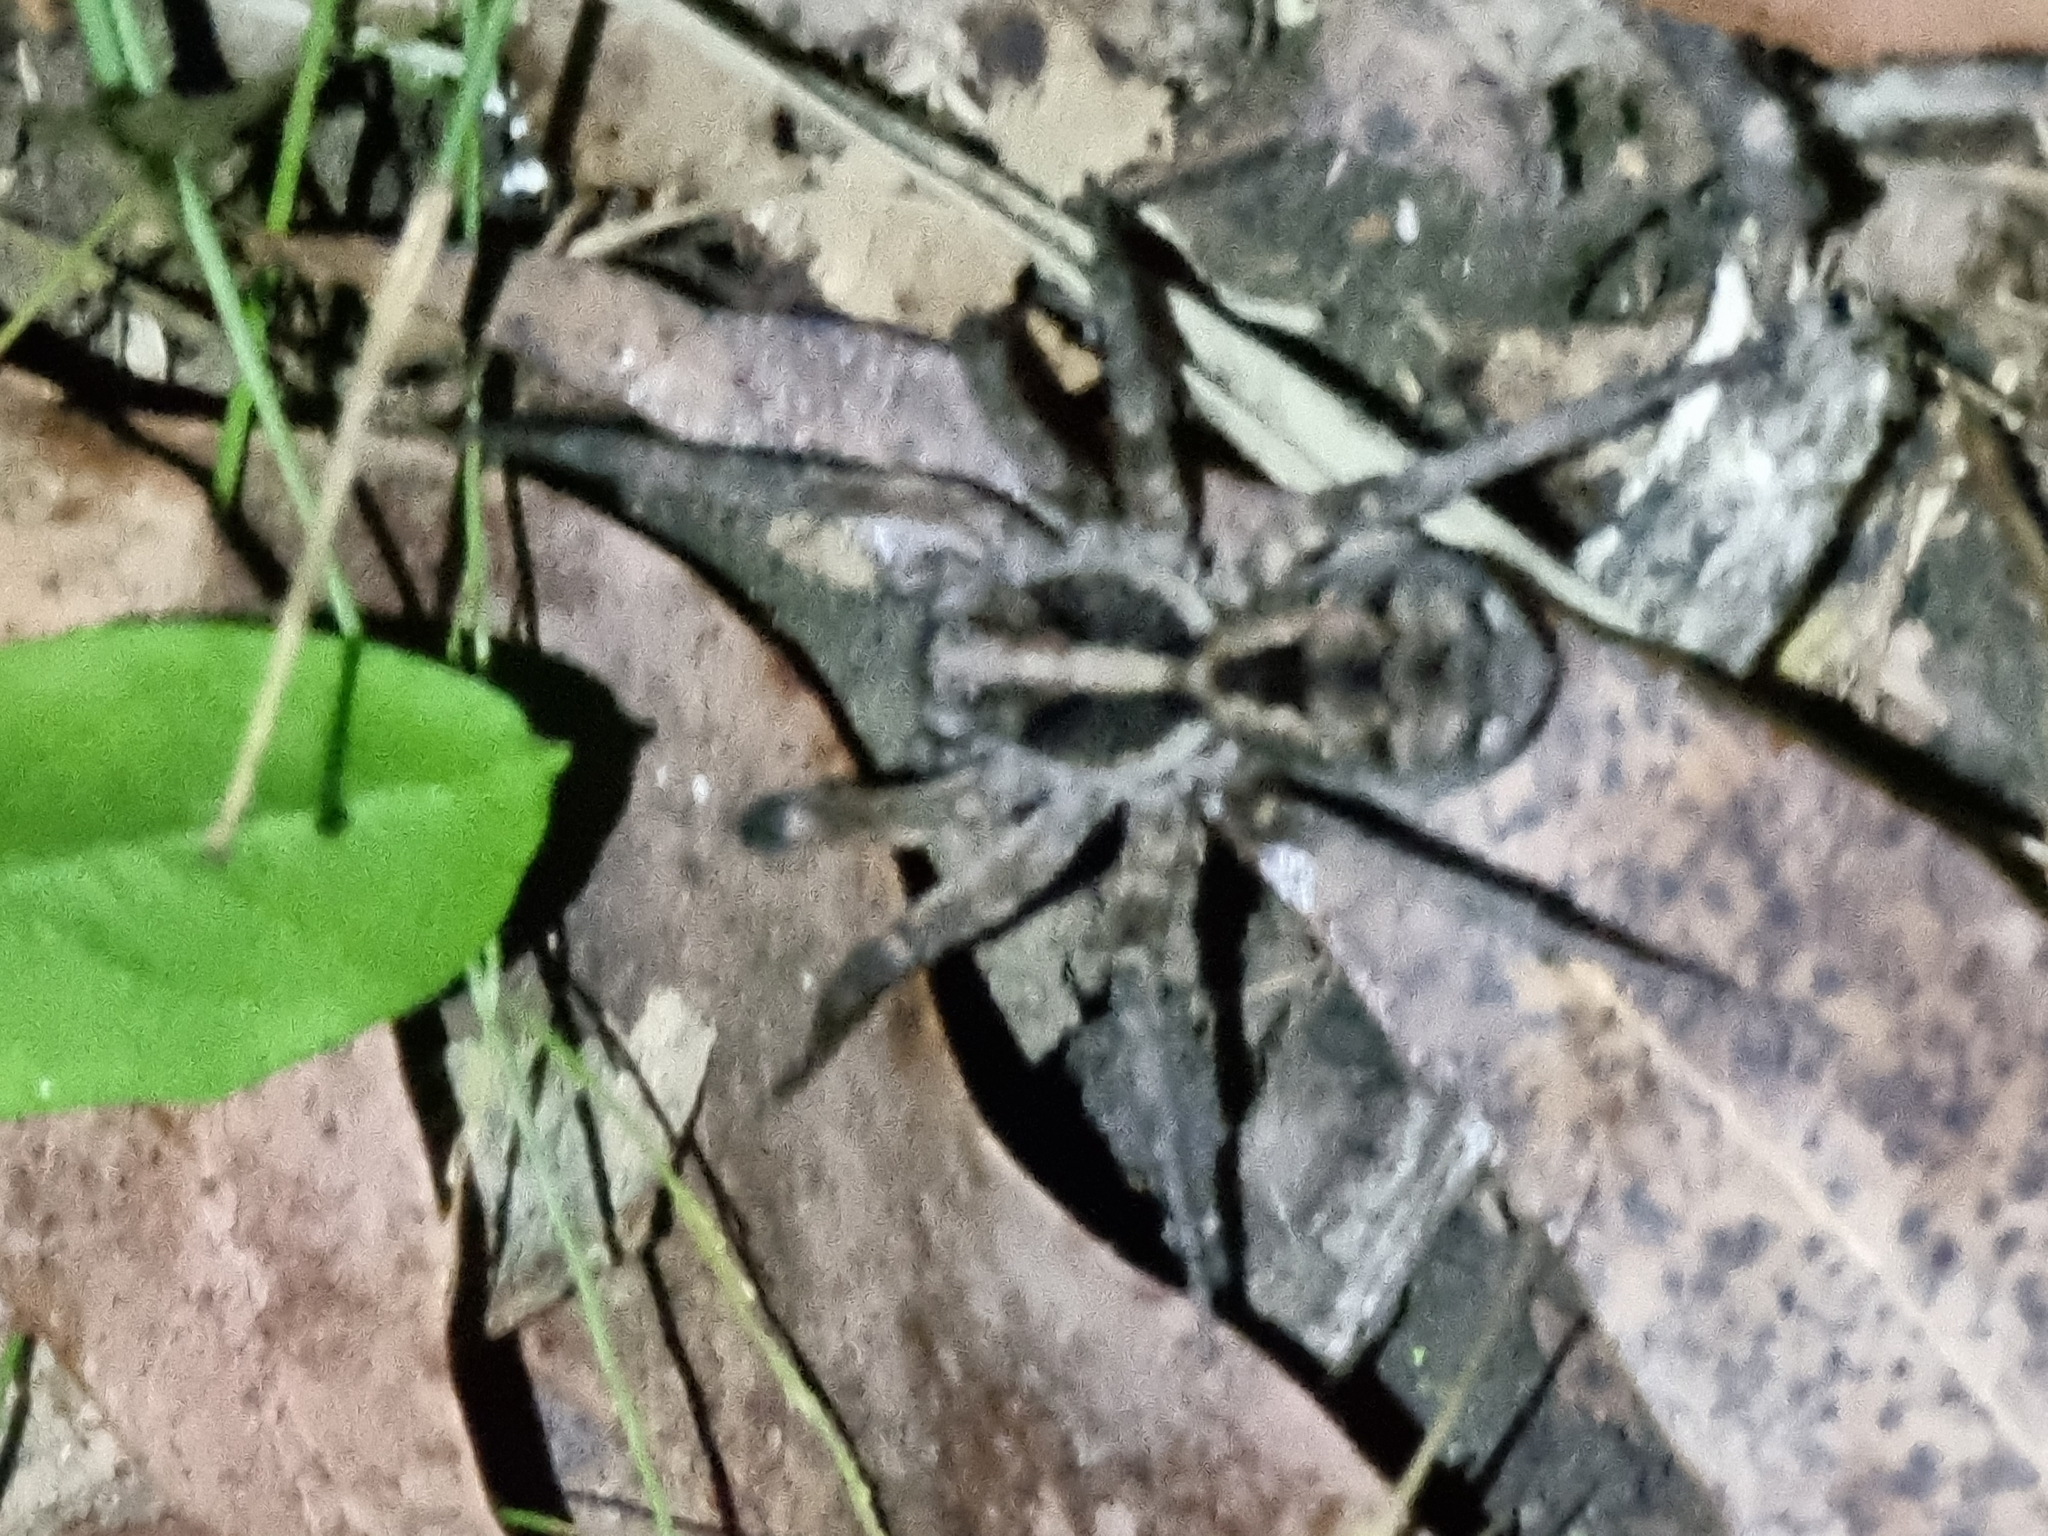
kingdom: Animalia
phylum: Arthropoda
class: Arachnida
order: Araneae
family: Lycosidae
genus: Venator
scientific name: Venator spenceri
